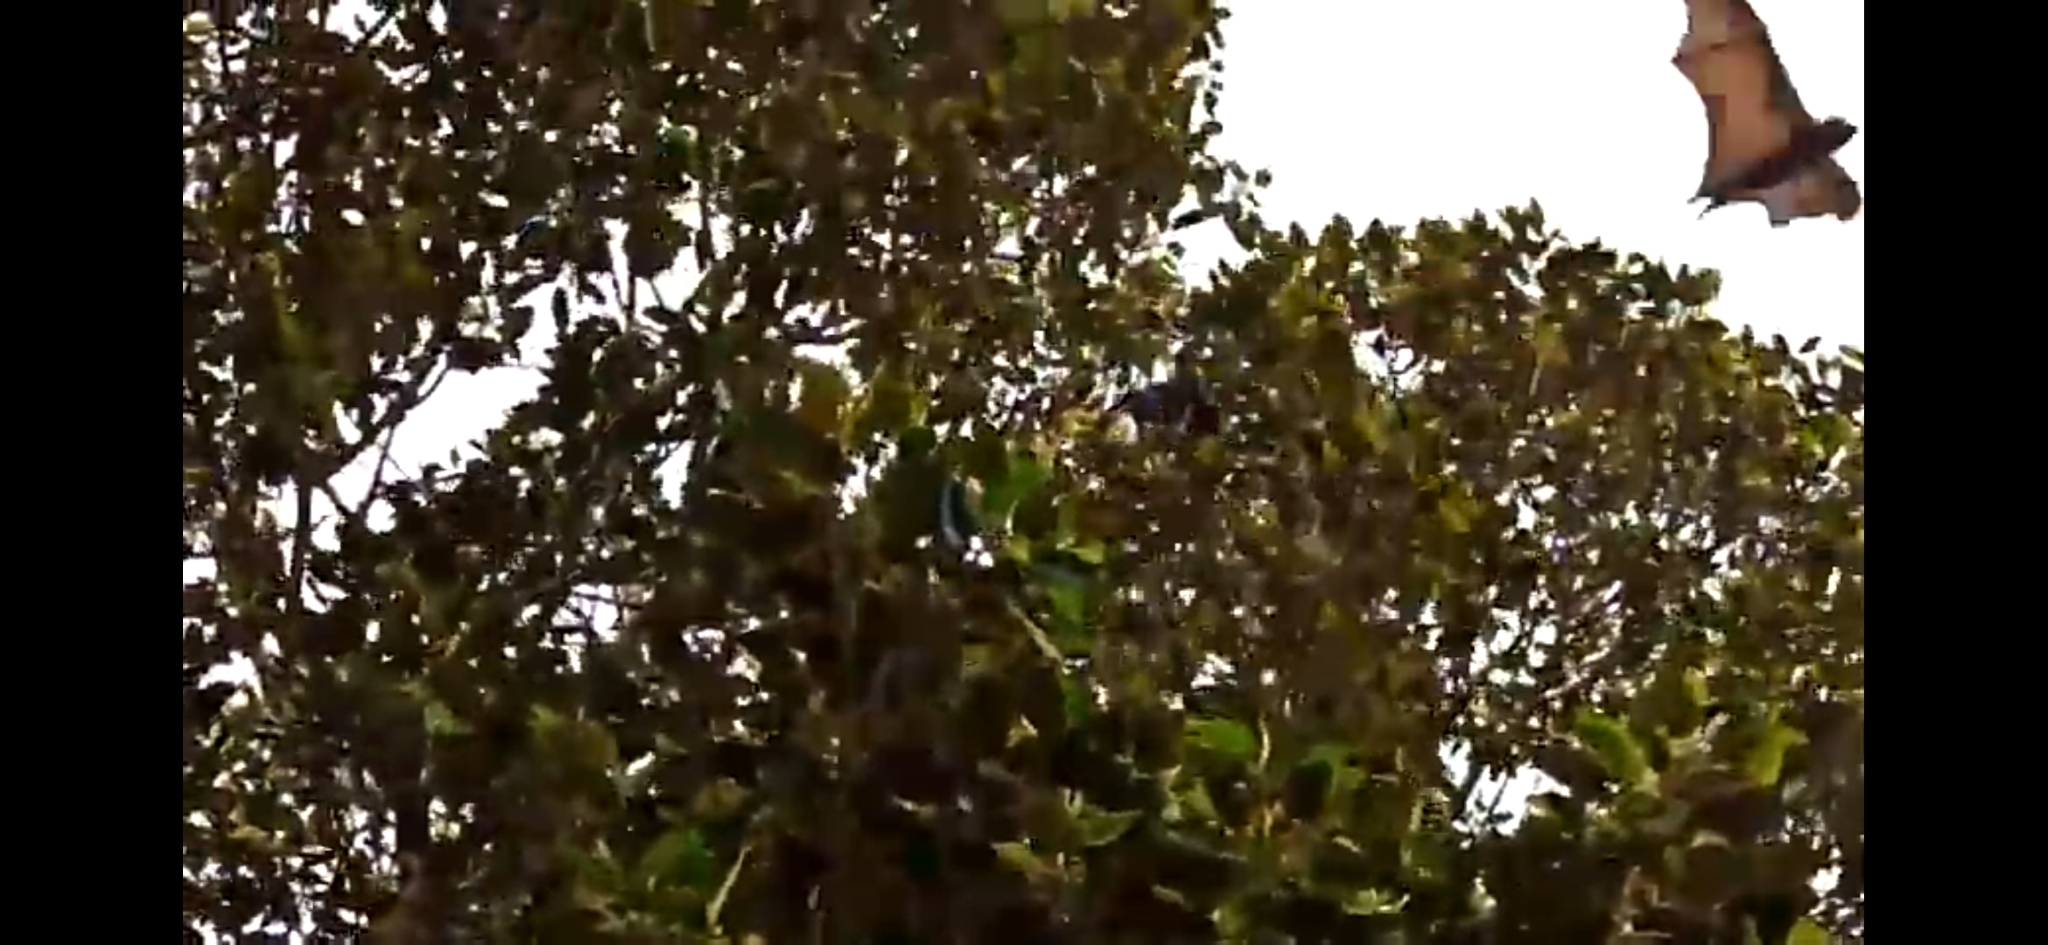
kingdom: Animalia
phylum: Chordata
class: Mammalia
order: Chiroptera
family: Pteropodidae
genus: Pteropus
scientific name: Pteropus poliocephalus
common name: Gray-headed flying fox
